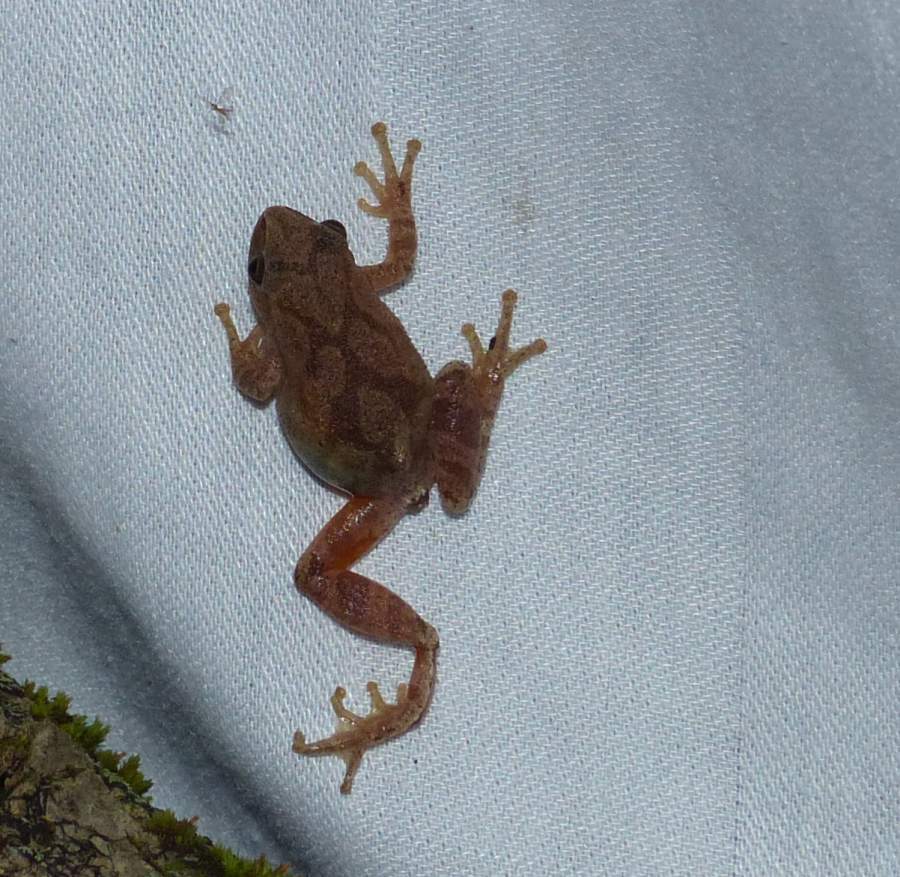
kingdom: Animalia
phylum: Chordata
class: Amphibia
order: Anura
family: Hylidae
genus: Pseudacris
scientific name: Pseudacris crucifer
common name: Spring peeper
